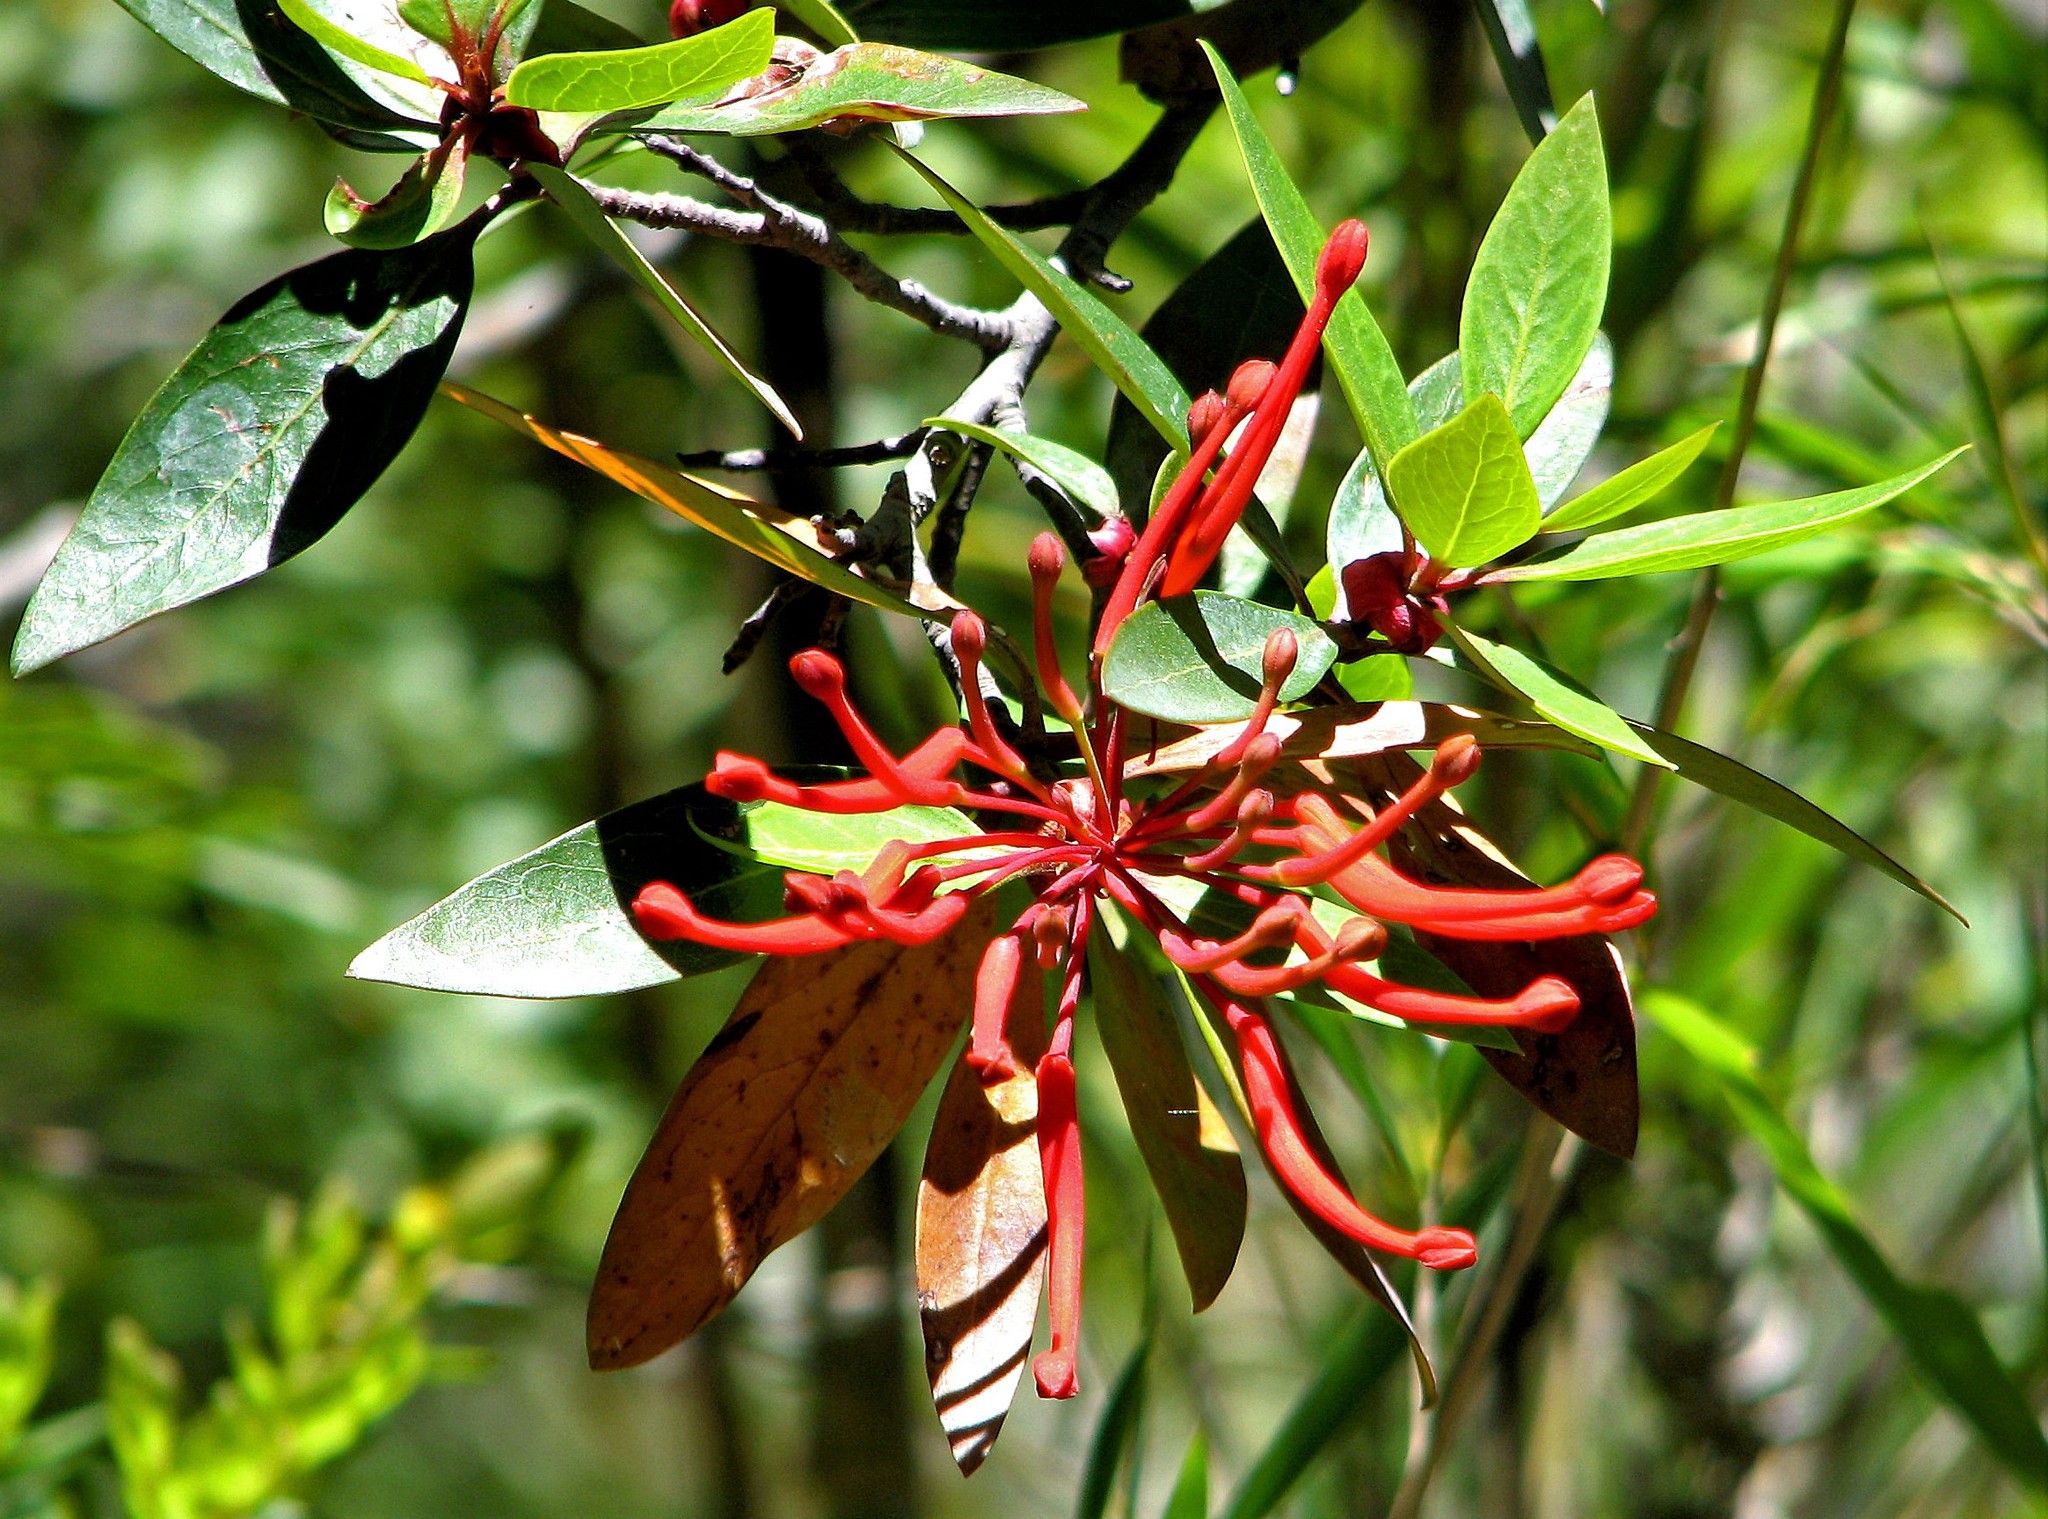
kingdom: Plantae
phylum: Tracheophyta
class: Magnoliopsida
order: Proteales
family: Proteaceae
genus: Embothrium
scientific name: Embothrium coccineum
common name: Chilean firebush
